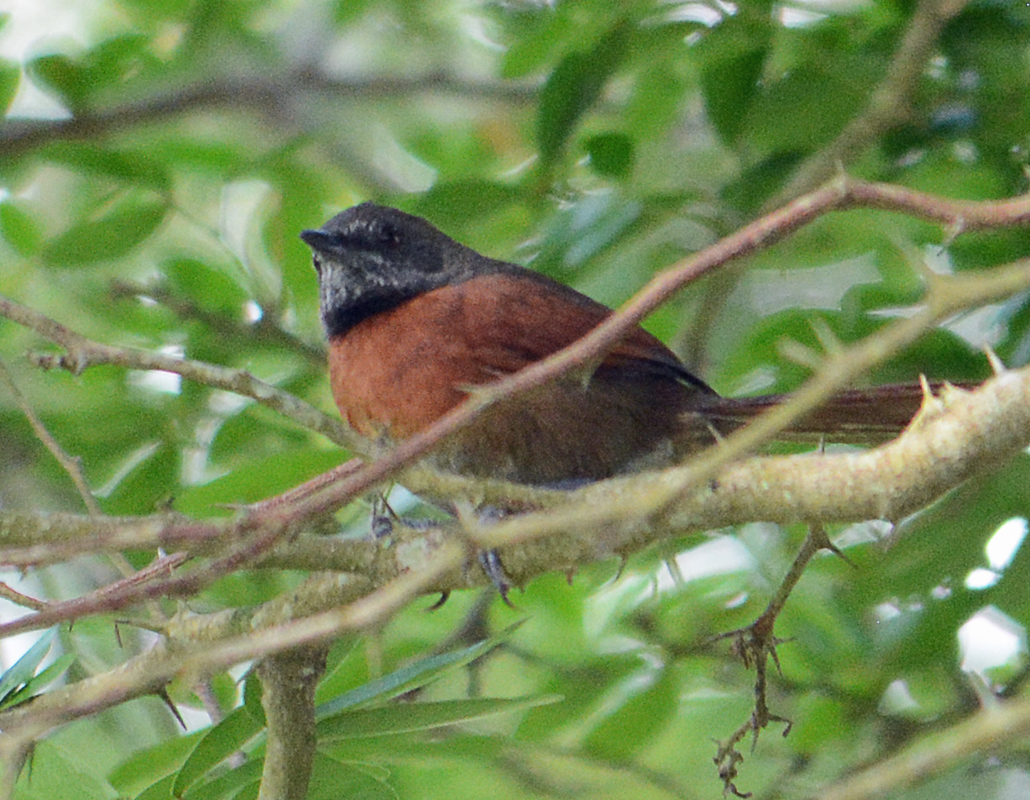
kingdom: Animalia
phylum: Chordata
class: Aves
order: Passeriformes
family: Furnariidae
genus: Synallaxis
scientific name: Synallaxis erythrothorax
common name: Rufous-breasted spinetail
